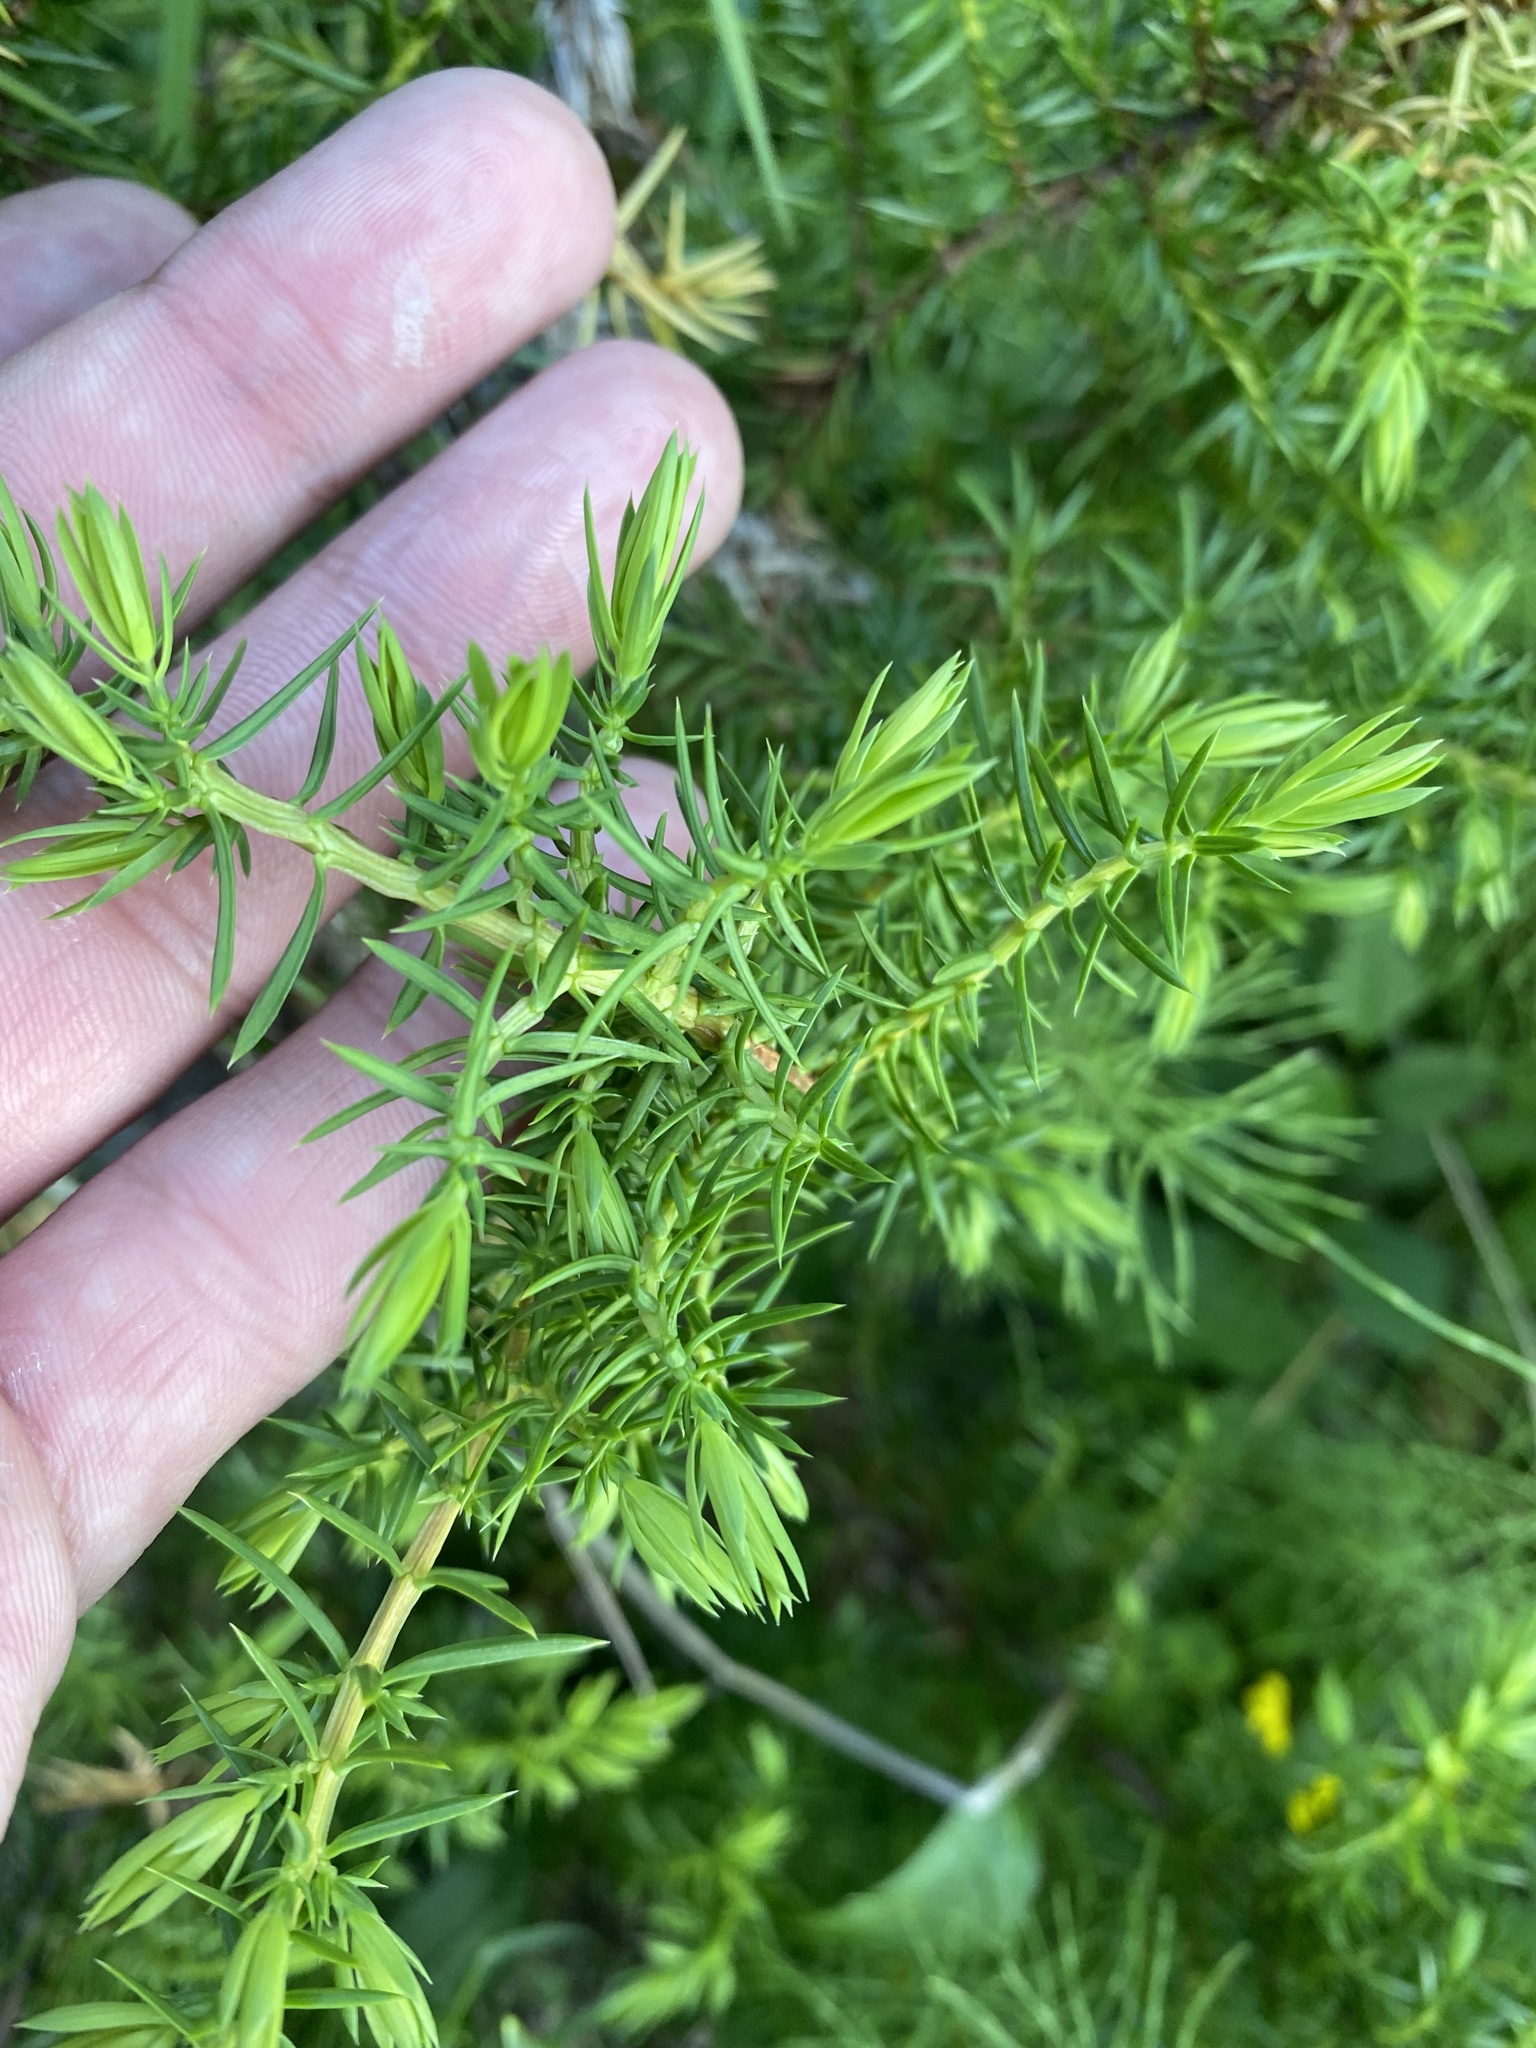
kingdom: Plantae
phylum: Tracheophyta
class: Pinopsida
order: Pinales
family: Cupressaceae
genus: Juniperus
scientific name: Juniperus communis
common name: Common juniper
